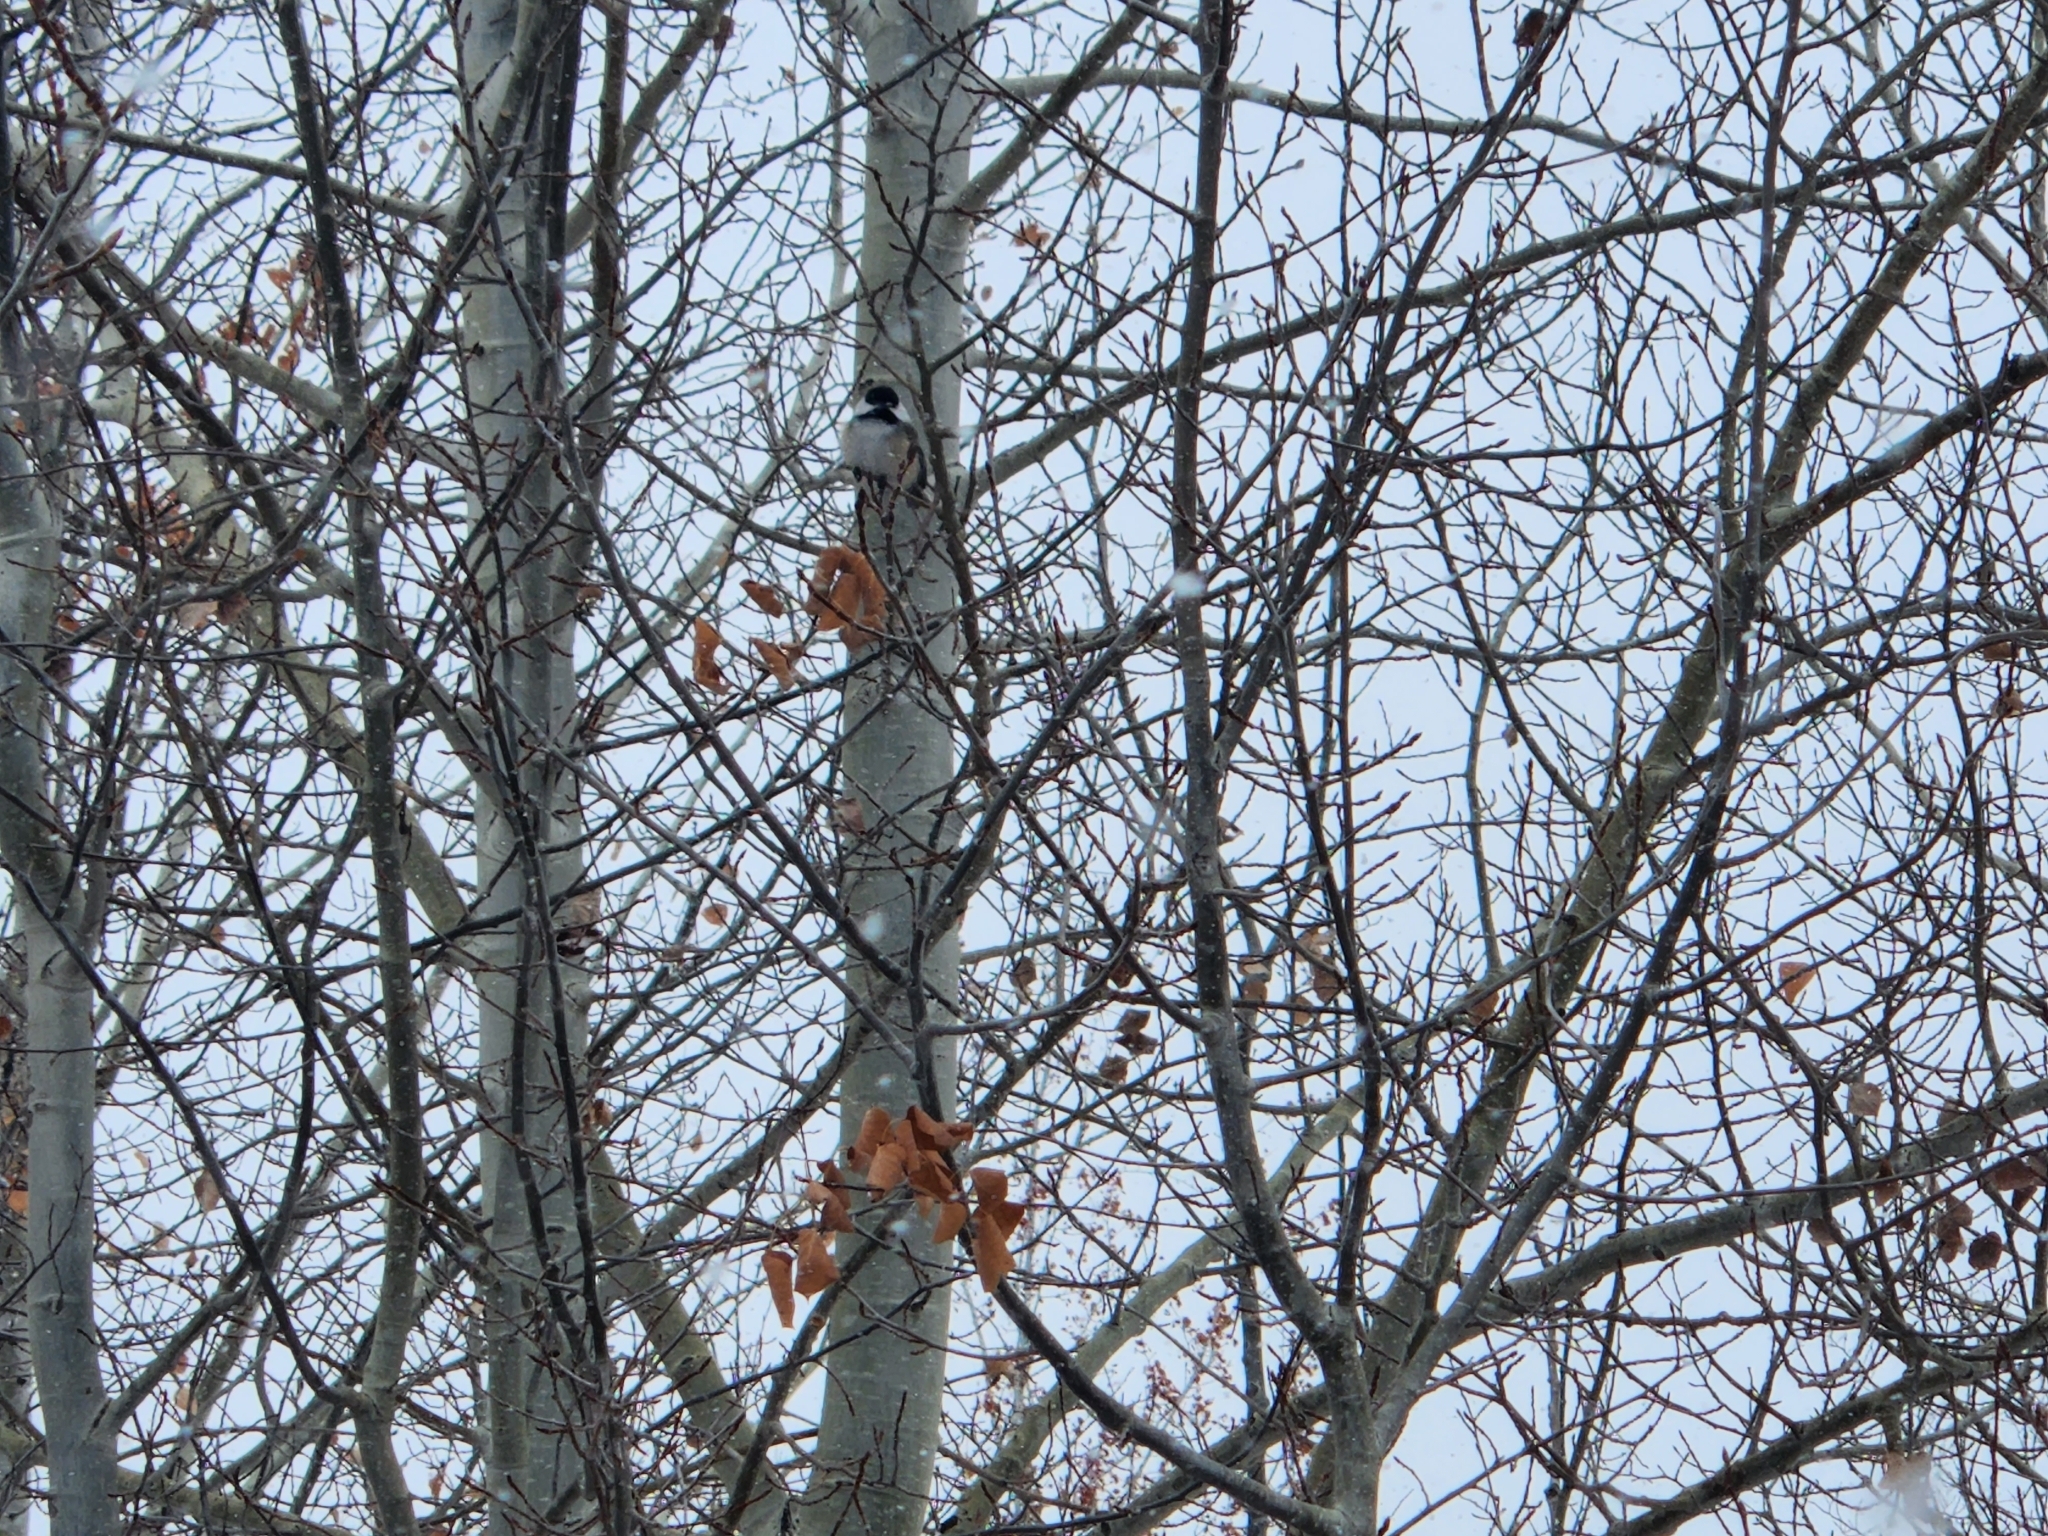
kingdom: Animalia
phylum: Chordata
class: Aves
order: Passeriformes
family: Paridae
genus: Poecile
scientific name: Poecile atricapillus
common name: Black-capped chickadee
